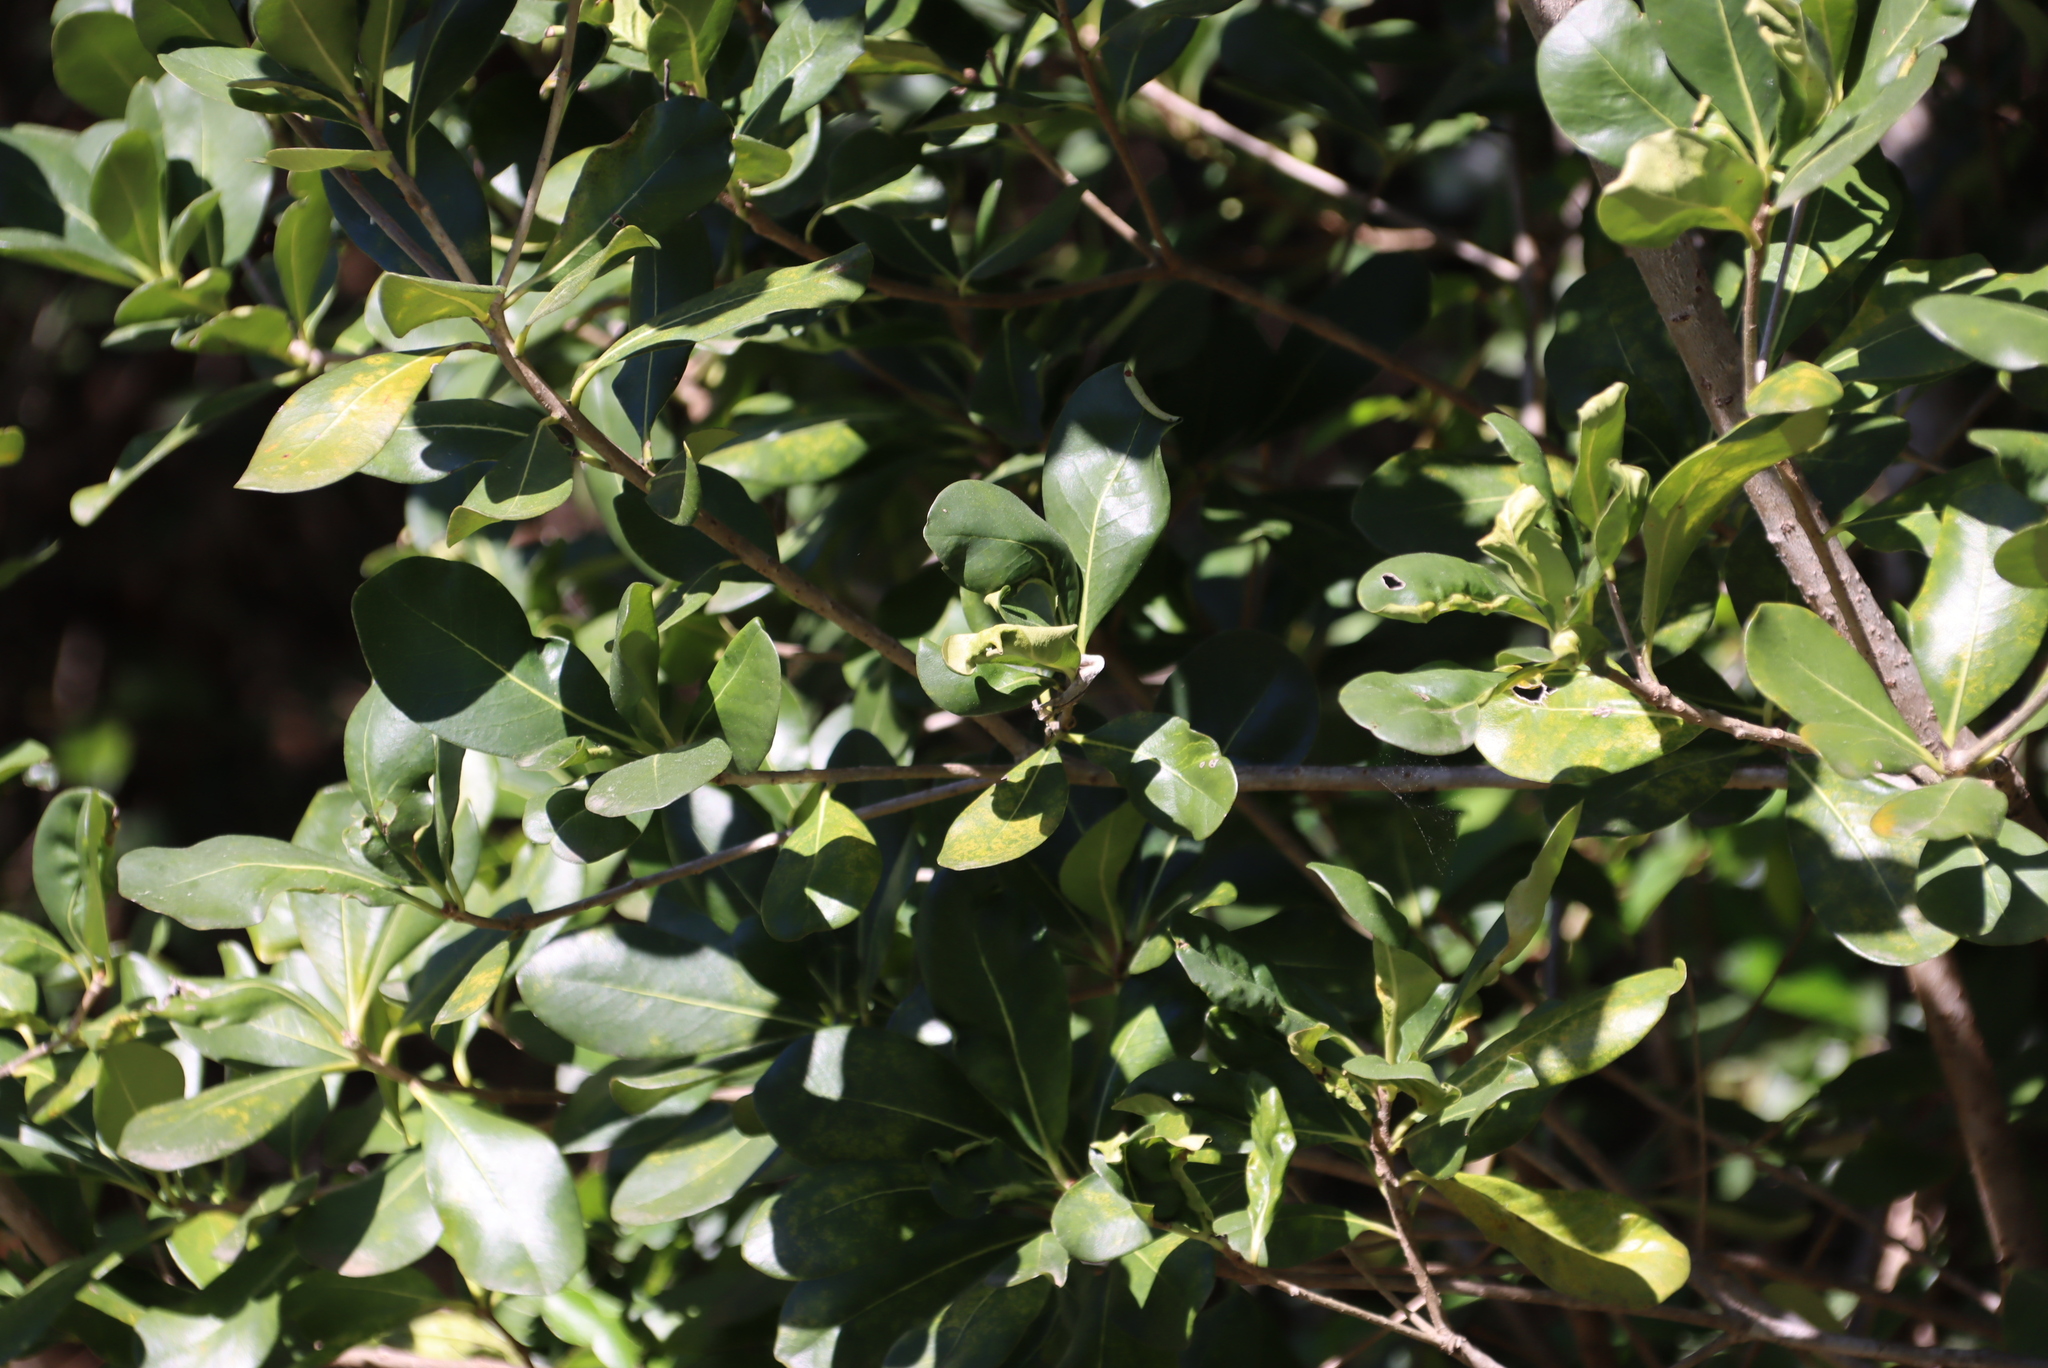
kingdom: Plantae
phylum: Tracheophyta
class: Magnoliopsida
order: Apiales
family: Pittosporaceae
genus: Pittosporum
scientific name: Pittosporum viridiflorum
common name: Cape cheesewood
